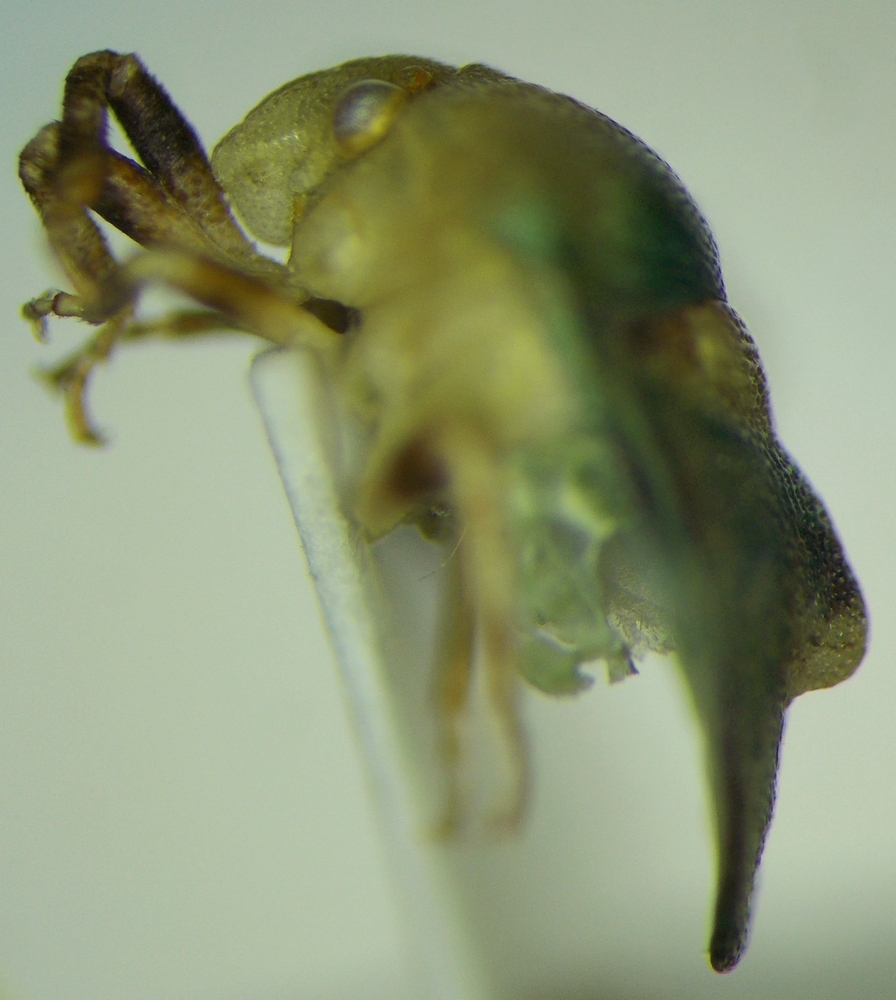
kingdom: Animalia
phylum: Arthropoda
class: Insecta
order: Hemiptera
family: Pentatomidae
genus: Tarisa
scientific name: Tarisa subspinosa
